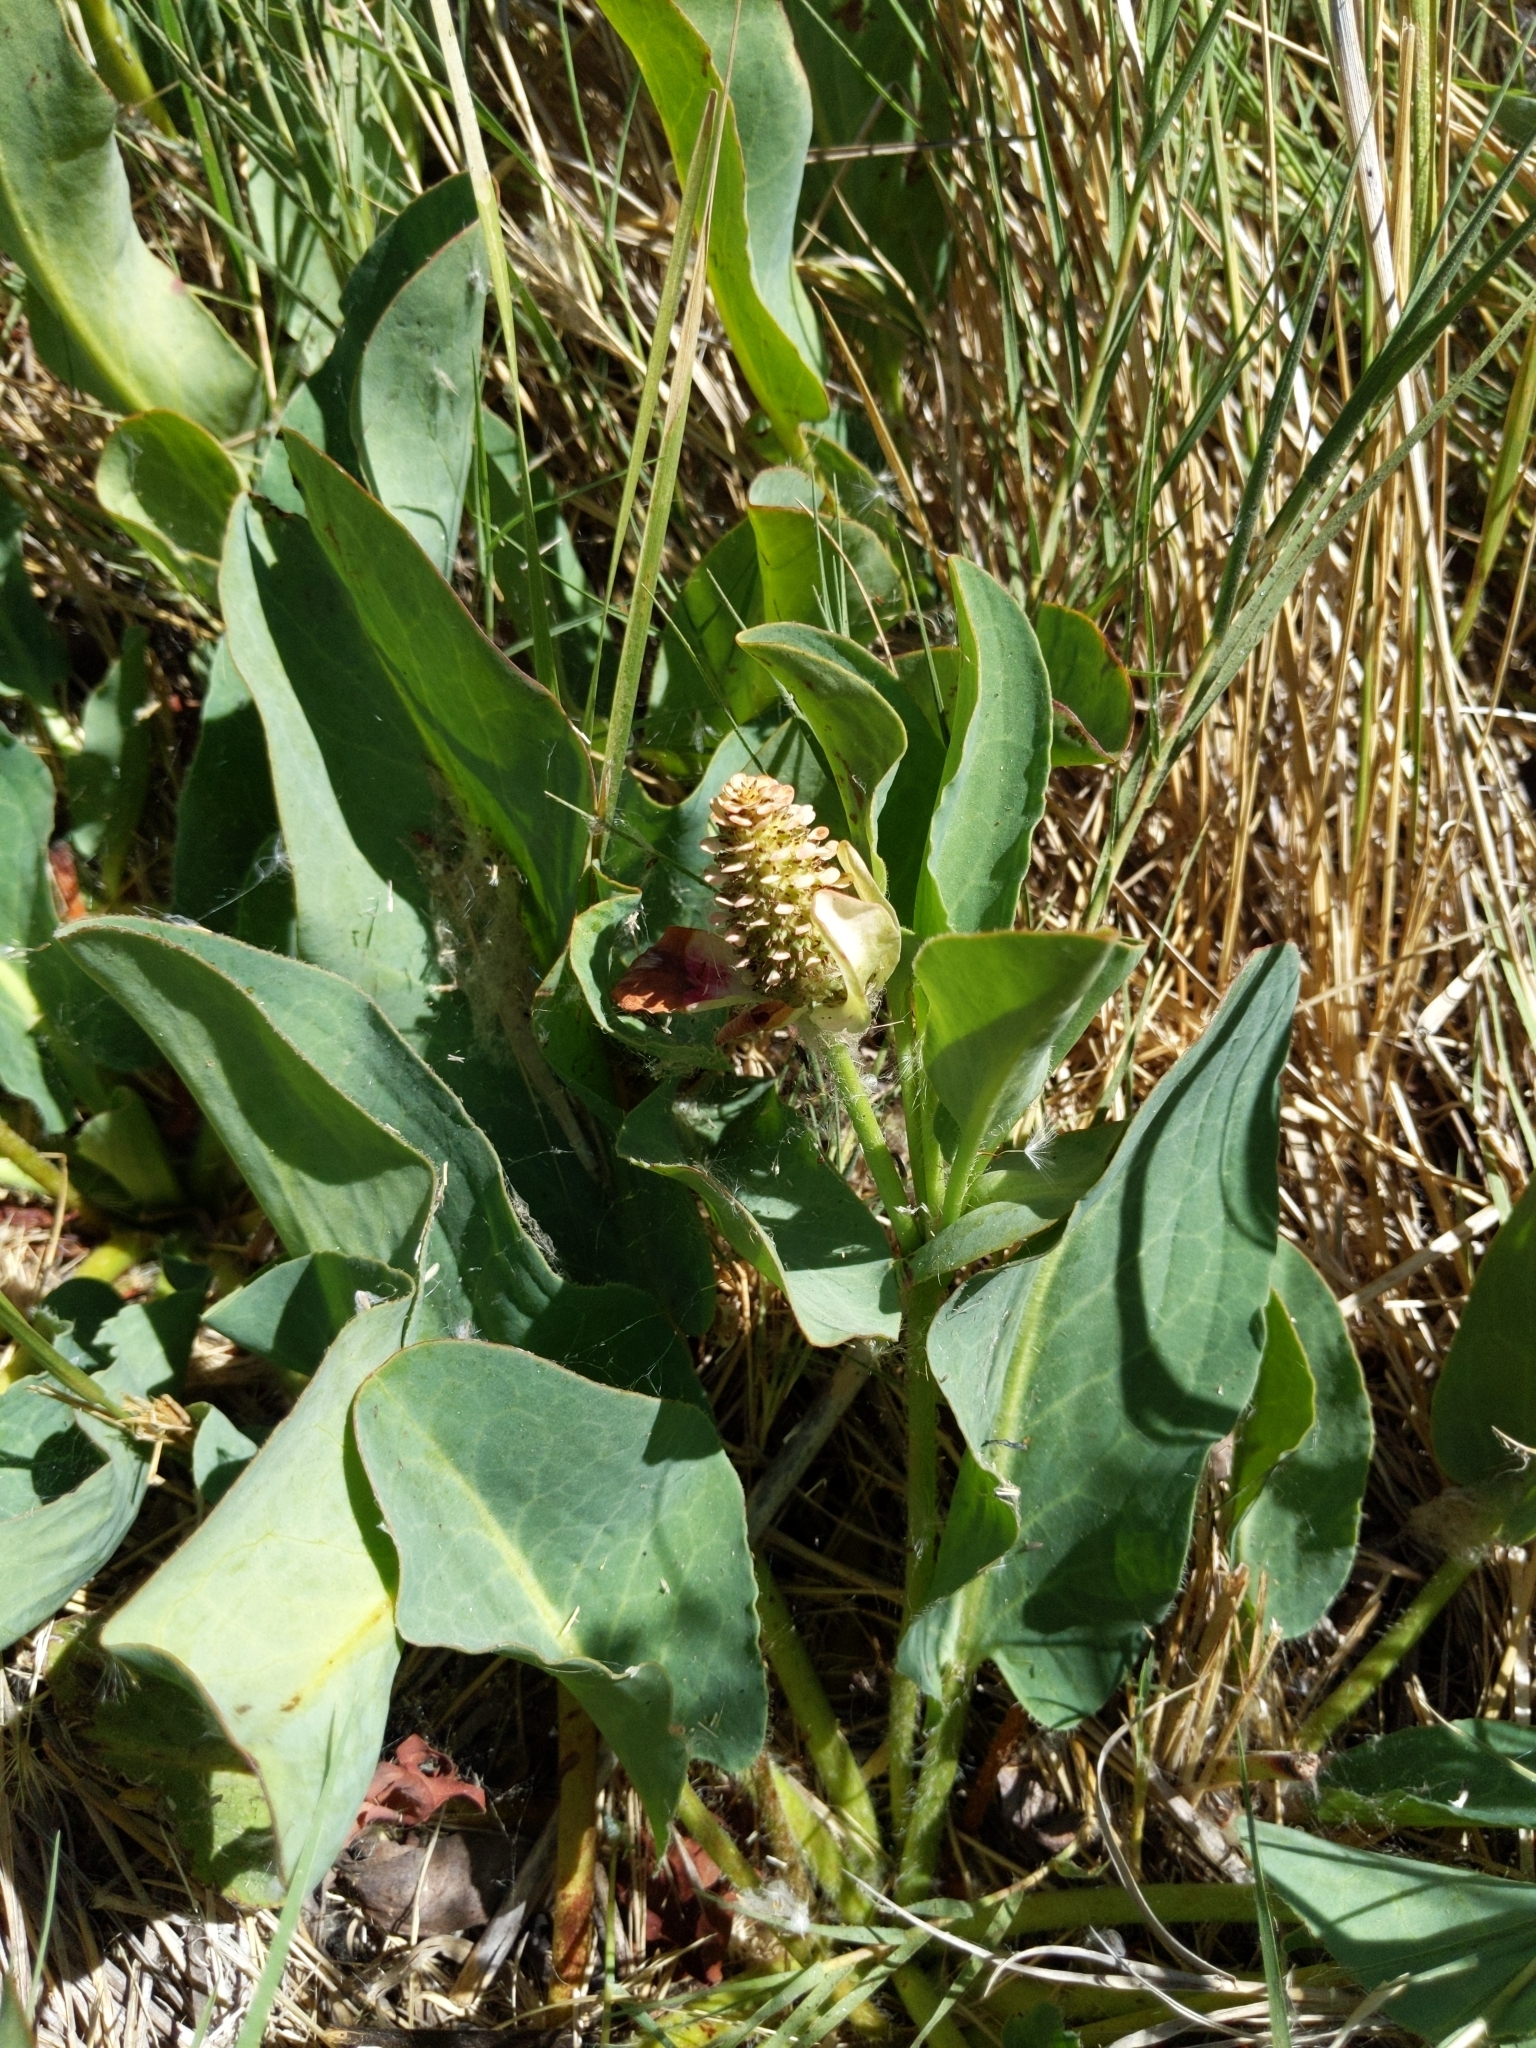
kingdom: Plantae
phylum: Tracheophyta
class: Magnoliopsida
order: Piperales
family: Saururaceae
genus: Anemopsis
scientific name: Anemopsis californica
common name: Apache-beads
